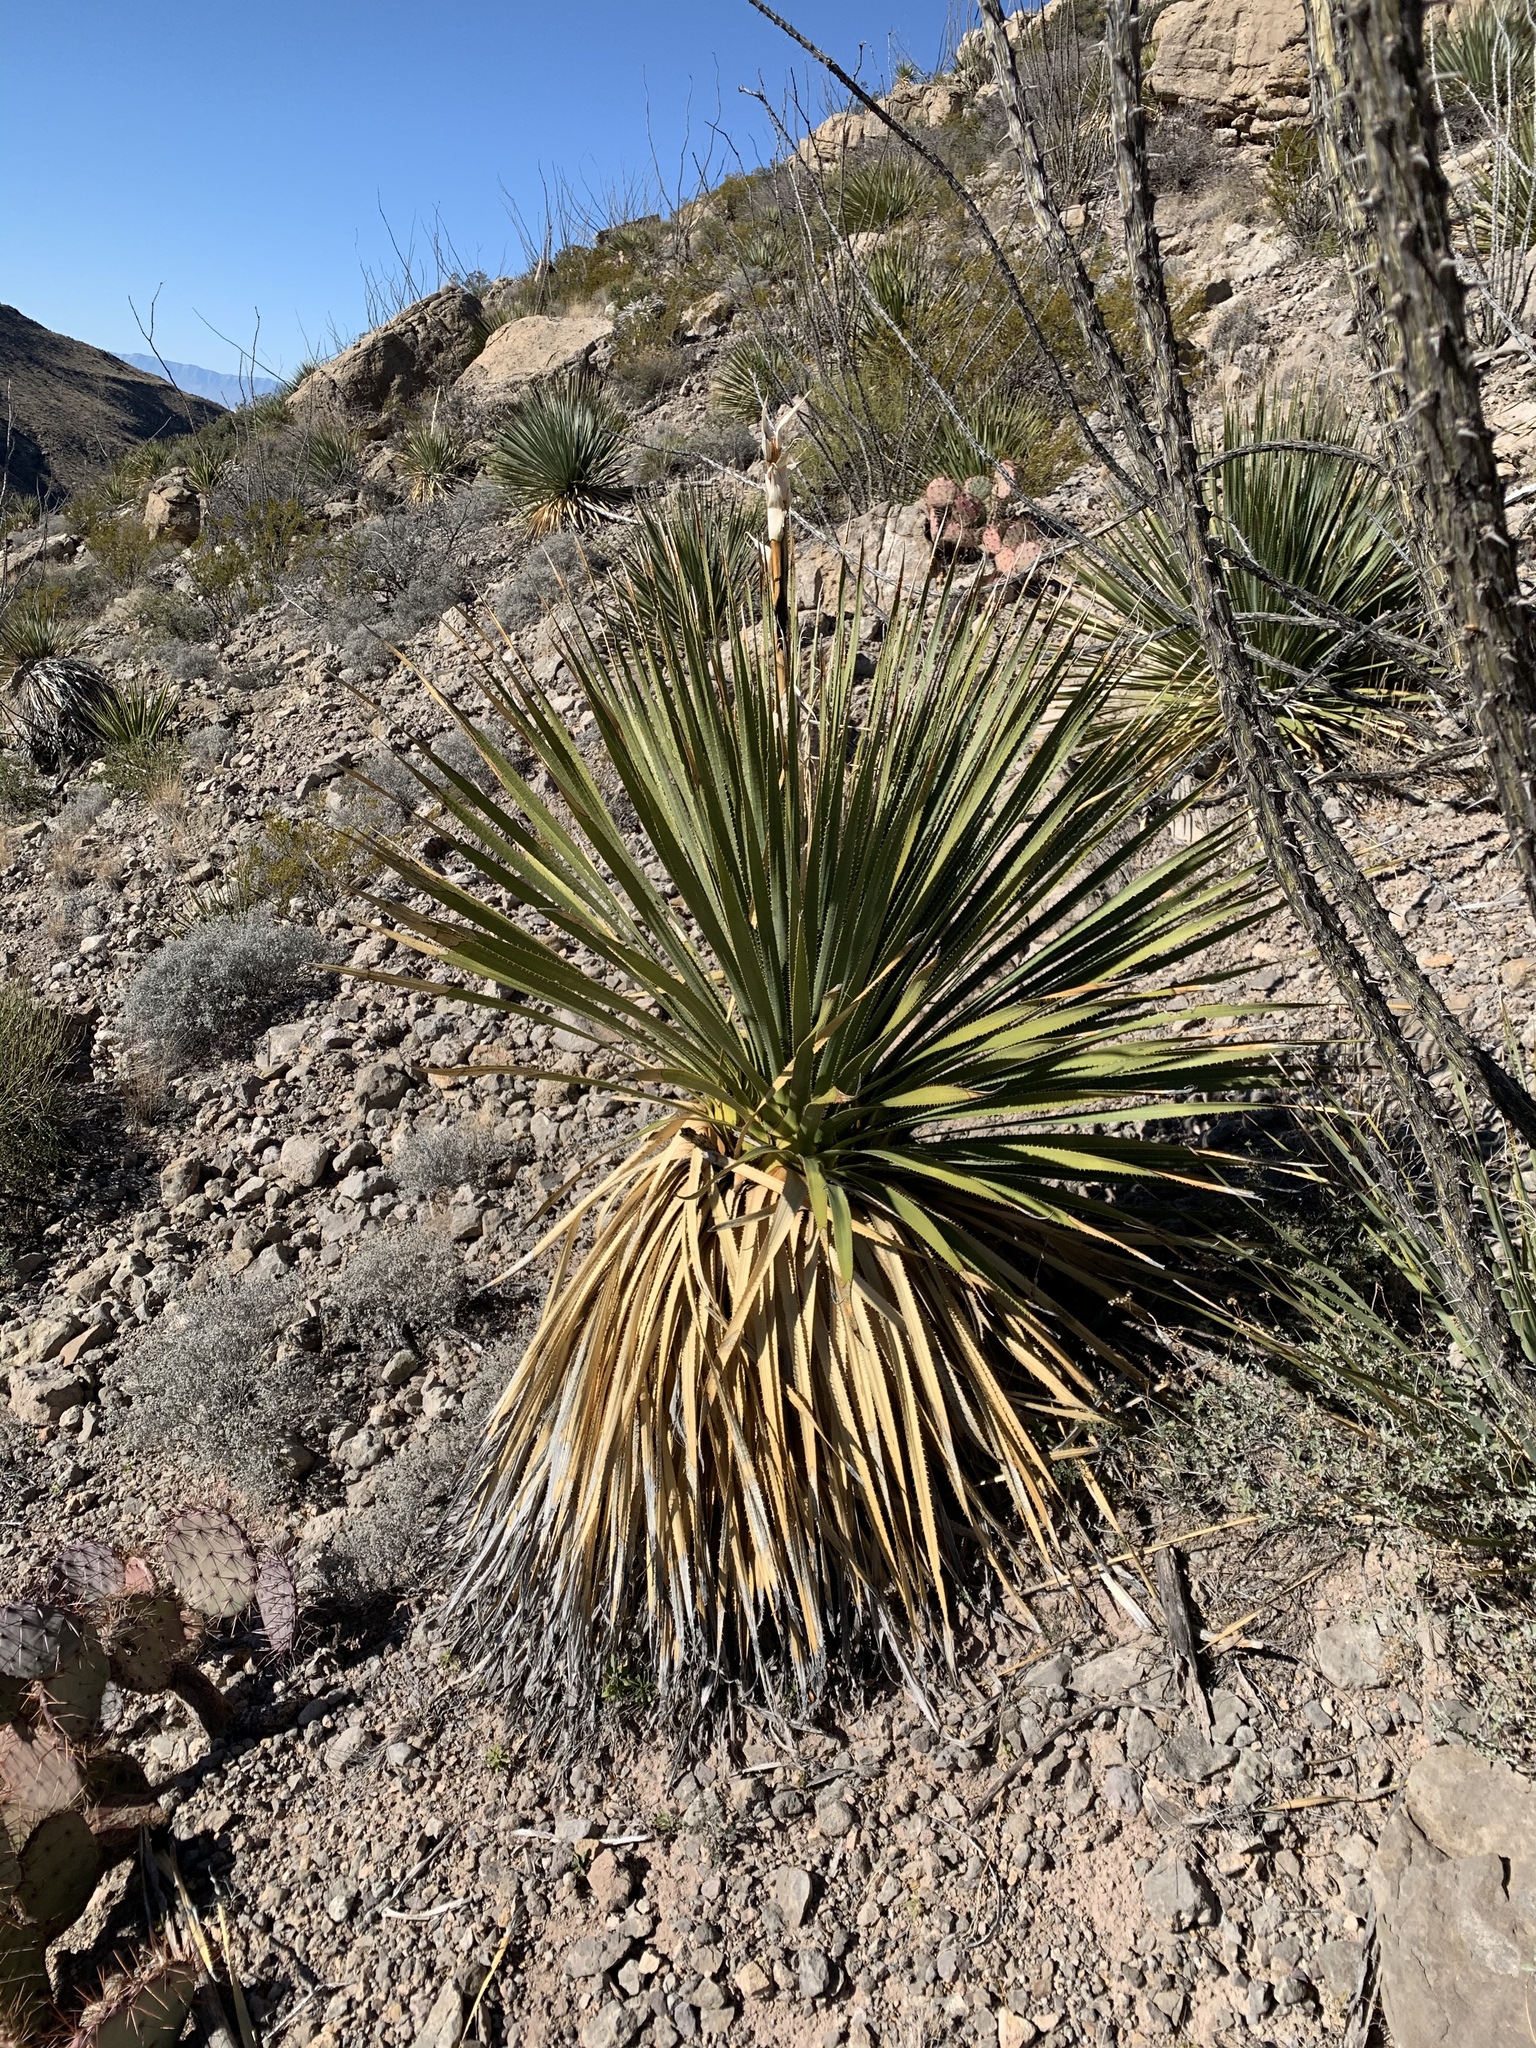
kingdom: Plantae
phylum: Tracheophyta
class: Liliopsida
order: Asparagales
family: Asparagaceae
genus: Dasylirion
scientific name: Dasylirion wheeleri
